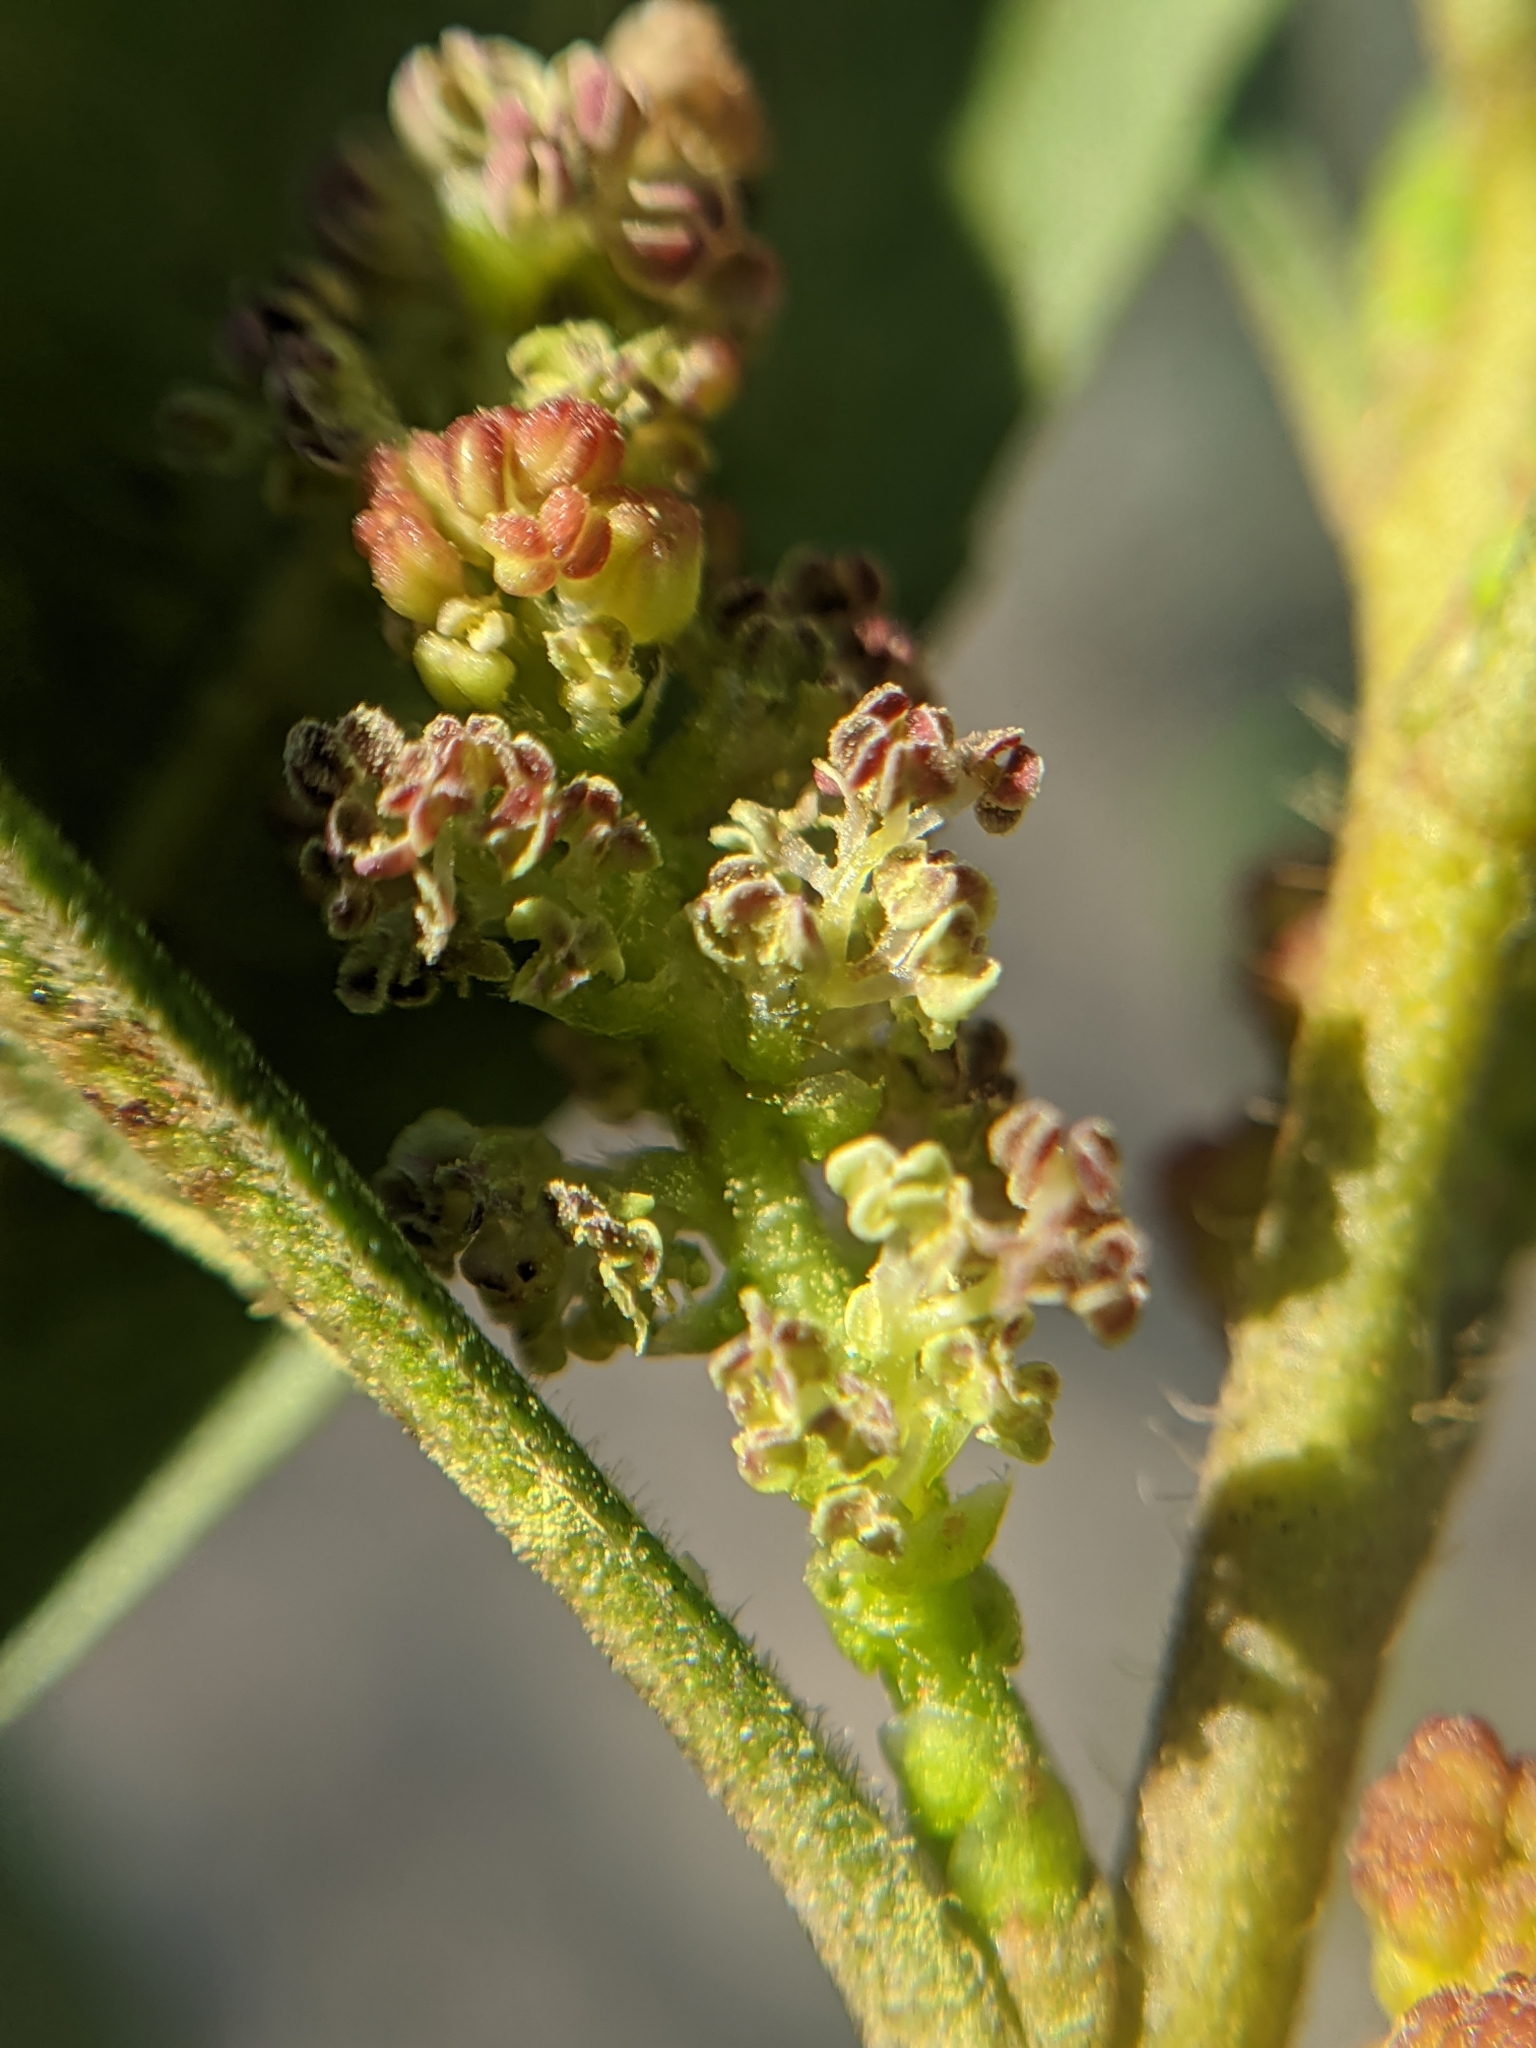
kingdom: Plantae
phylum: Tracheophyta
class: Magnoliopsida
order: Fagales
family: Myricaceae
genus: Morella
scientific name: Morella californica
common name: California wax-myrtle
